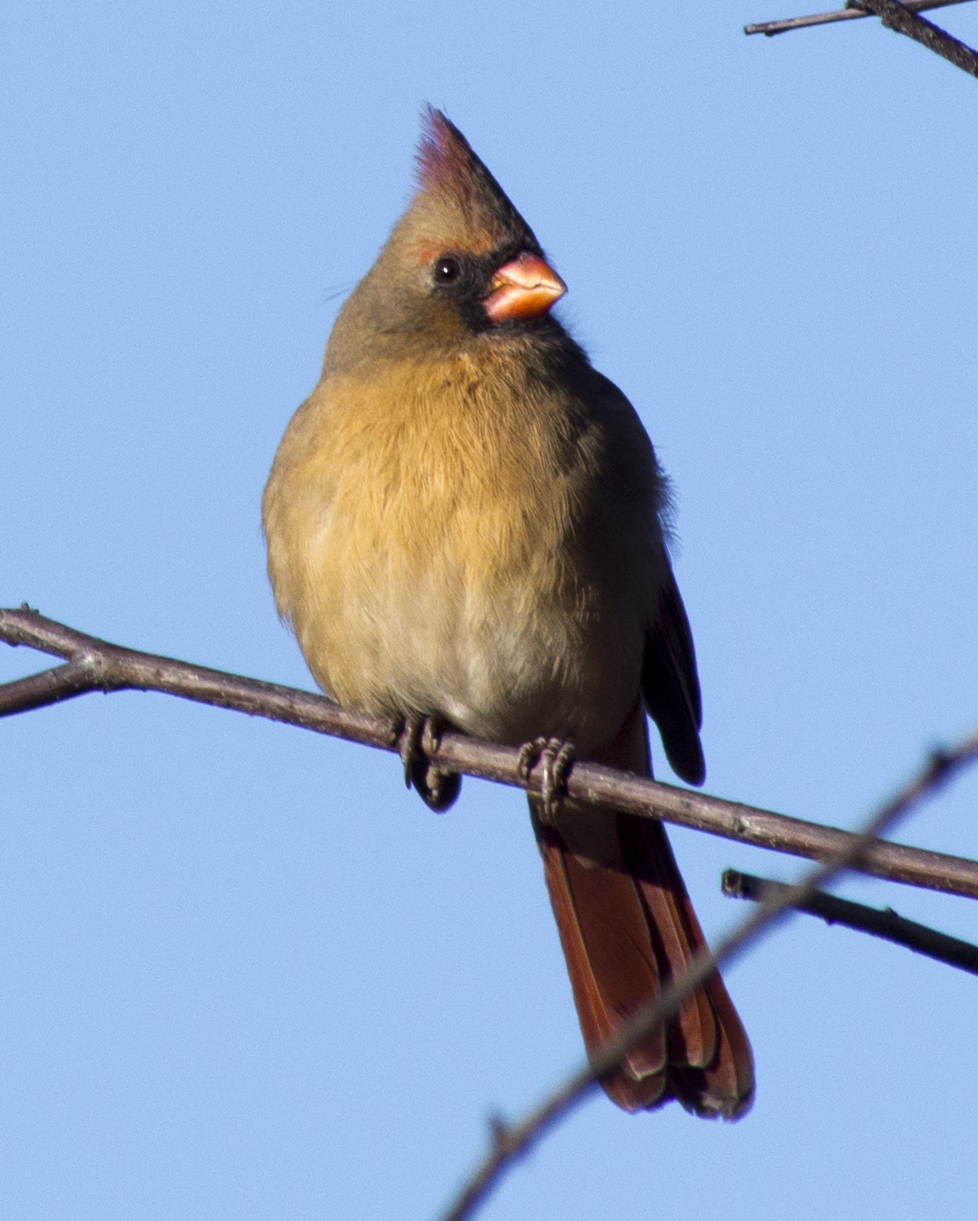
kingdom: Animalia
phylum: Chordata
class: Aves
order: Passeriformes
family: Cardinalidae
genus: Cardinalis
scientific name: Cardinalis cardinalis
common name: Northern cardinal
